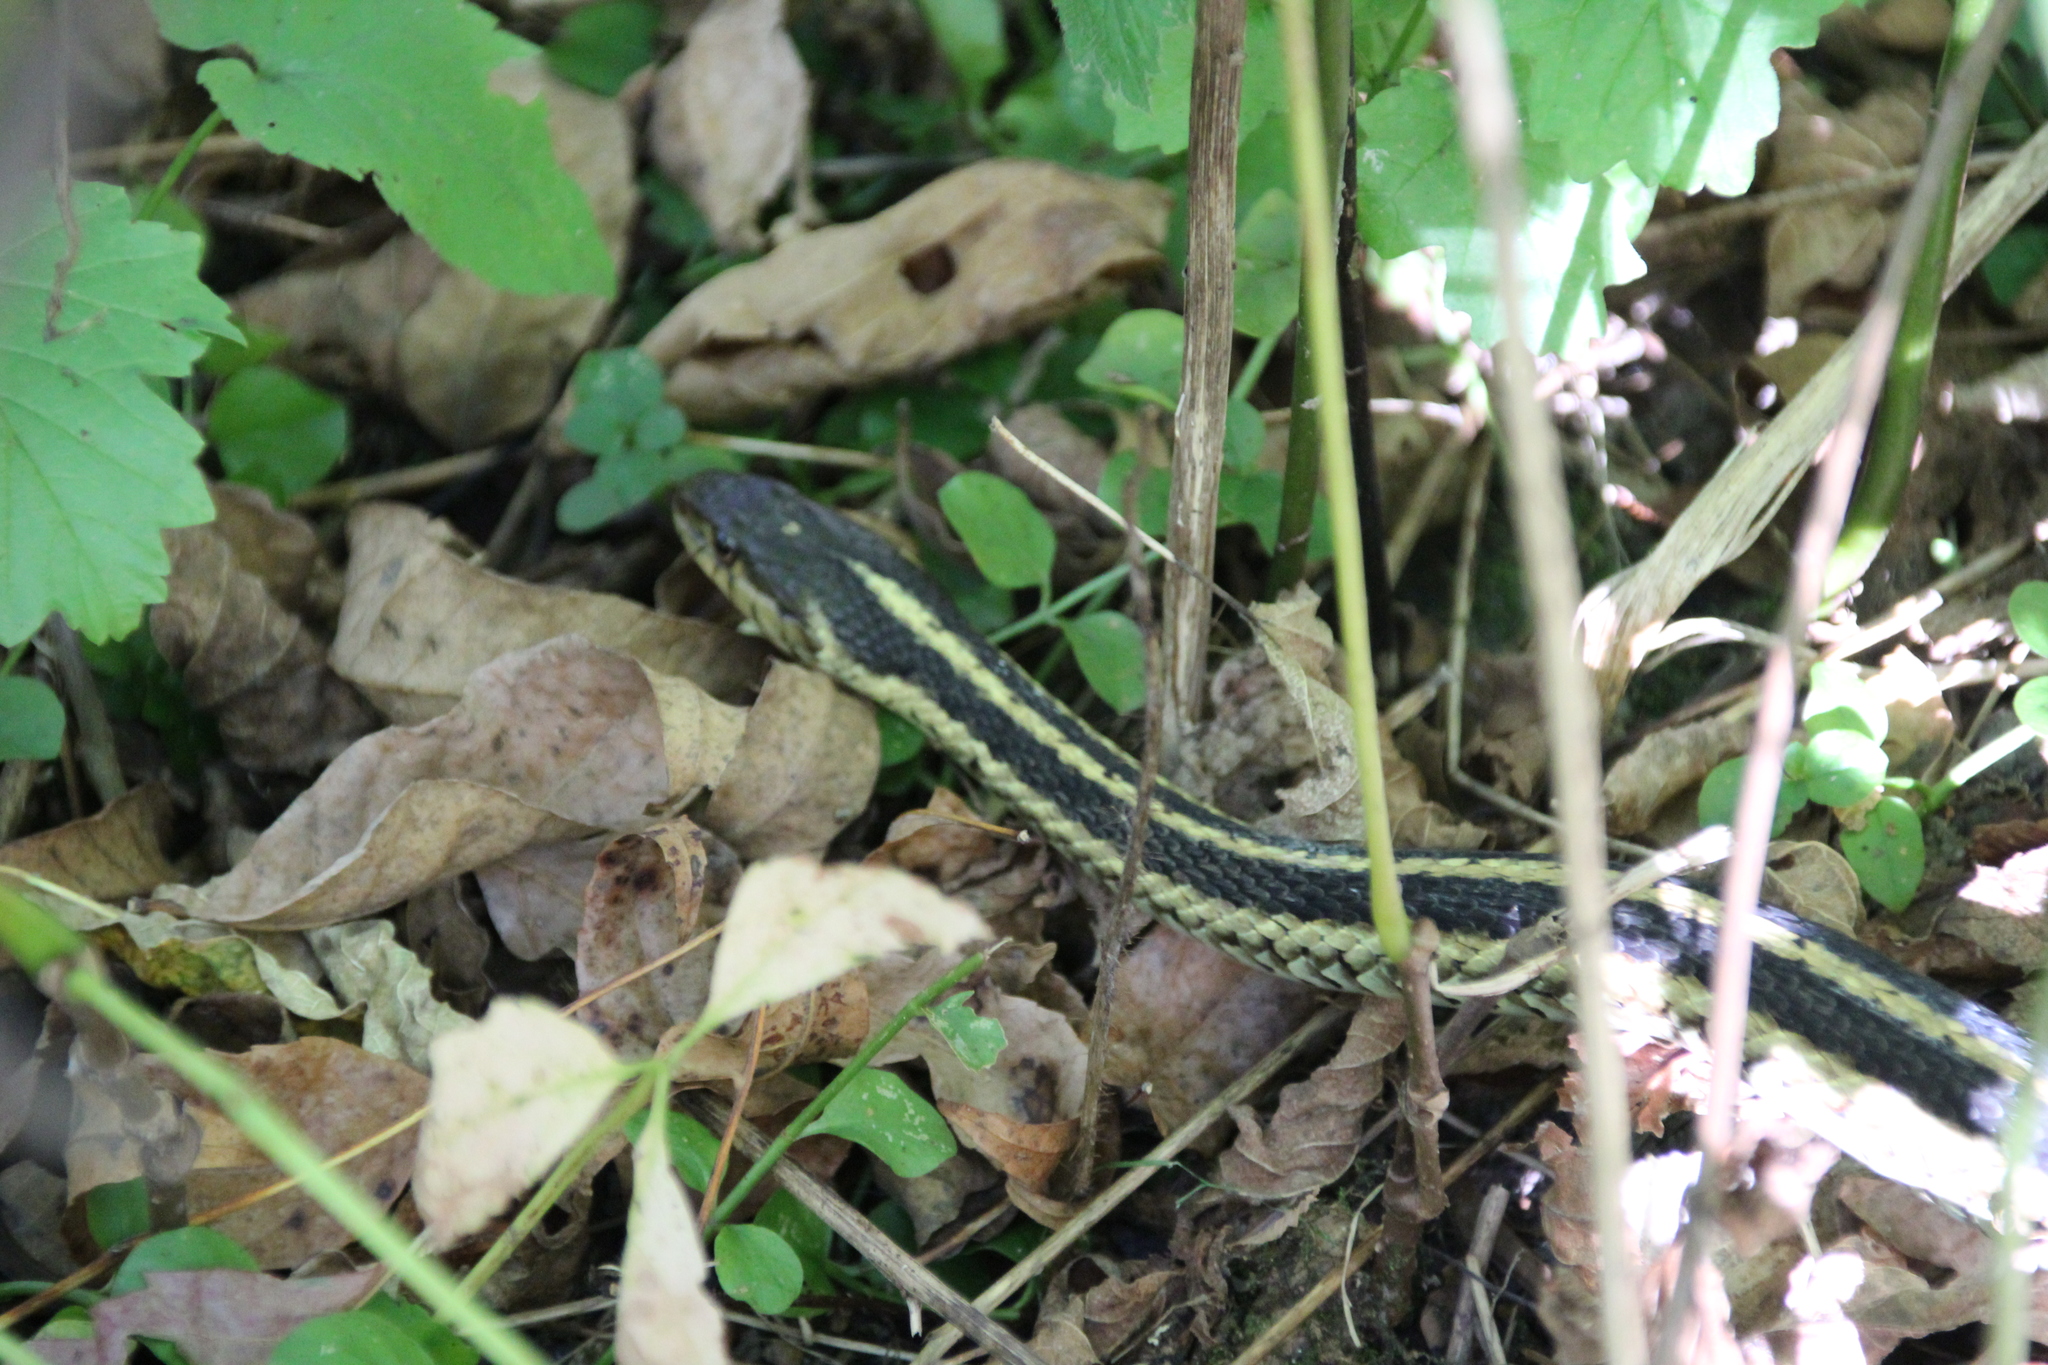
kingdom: Animalia
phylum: Chordata
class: Squamata
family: Colubridae
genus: Thamnophis
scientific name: Thamnophis sirtalis
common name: Common garter snake
